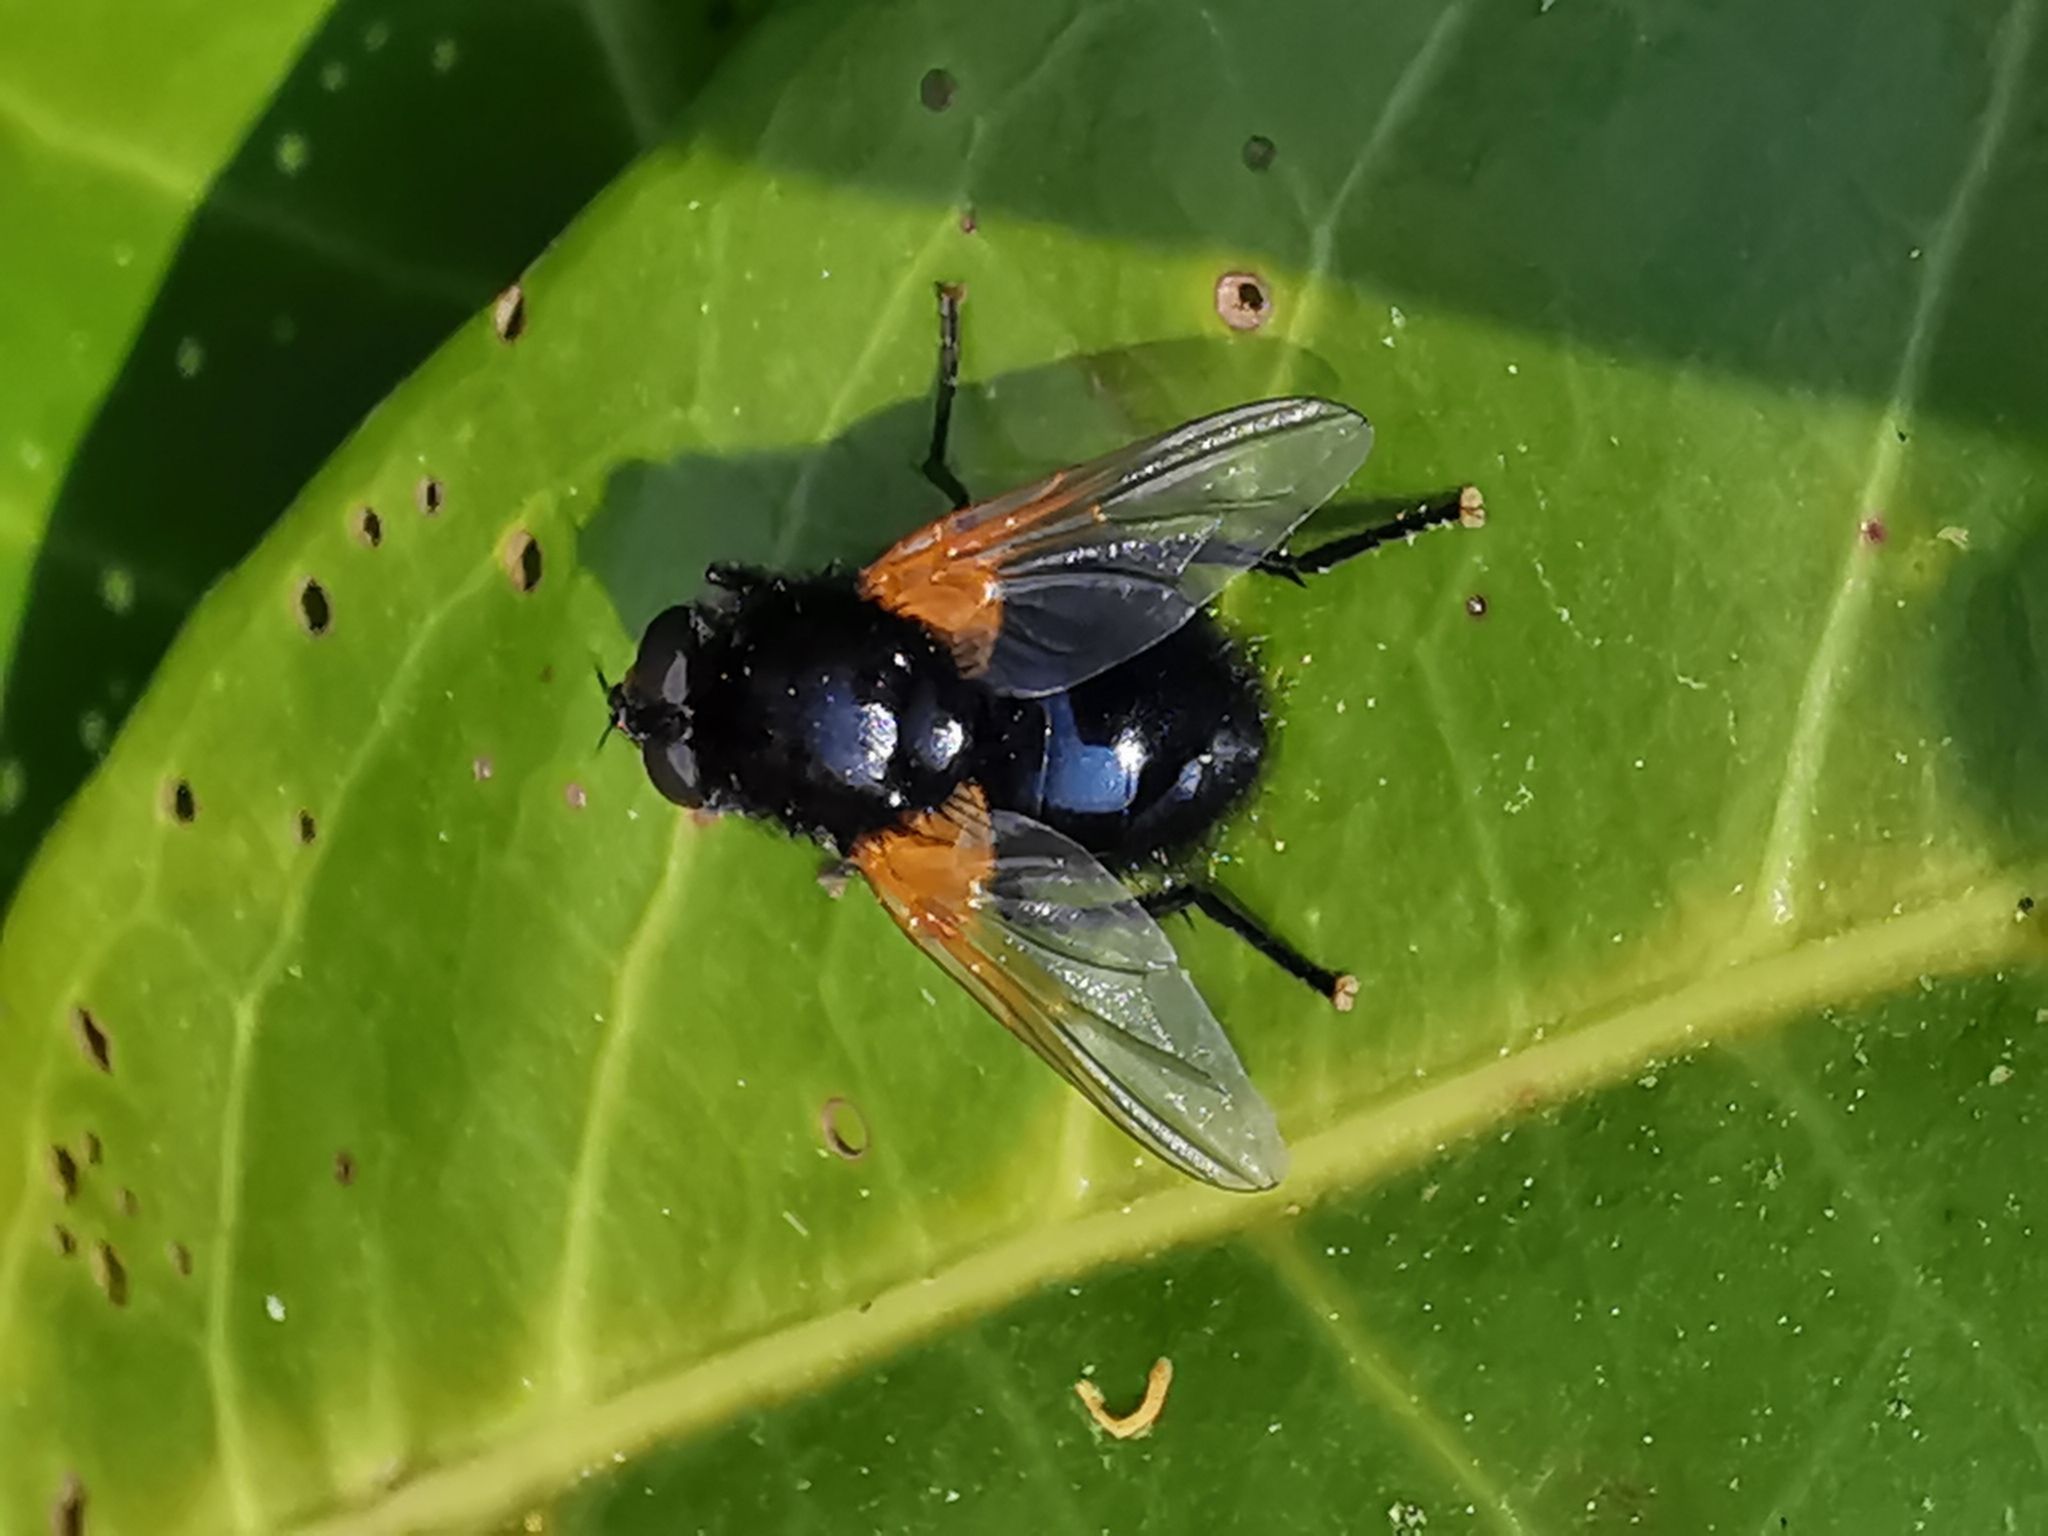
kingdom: Animalia
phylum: Arthropoda
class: Insecta
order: Diptera
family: Muscidae
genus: Mesembrina
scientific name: Mesembrina meridiana
